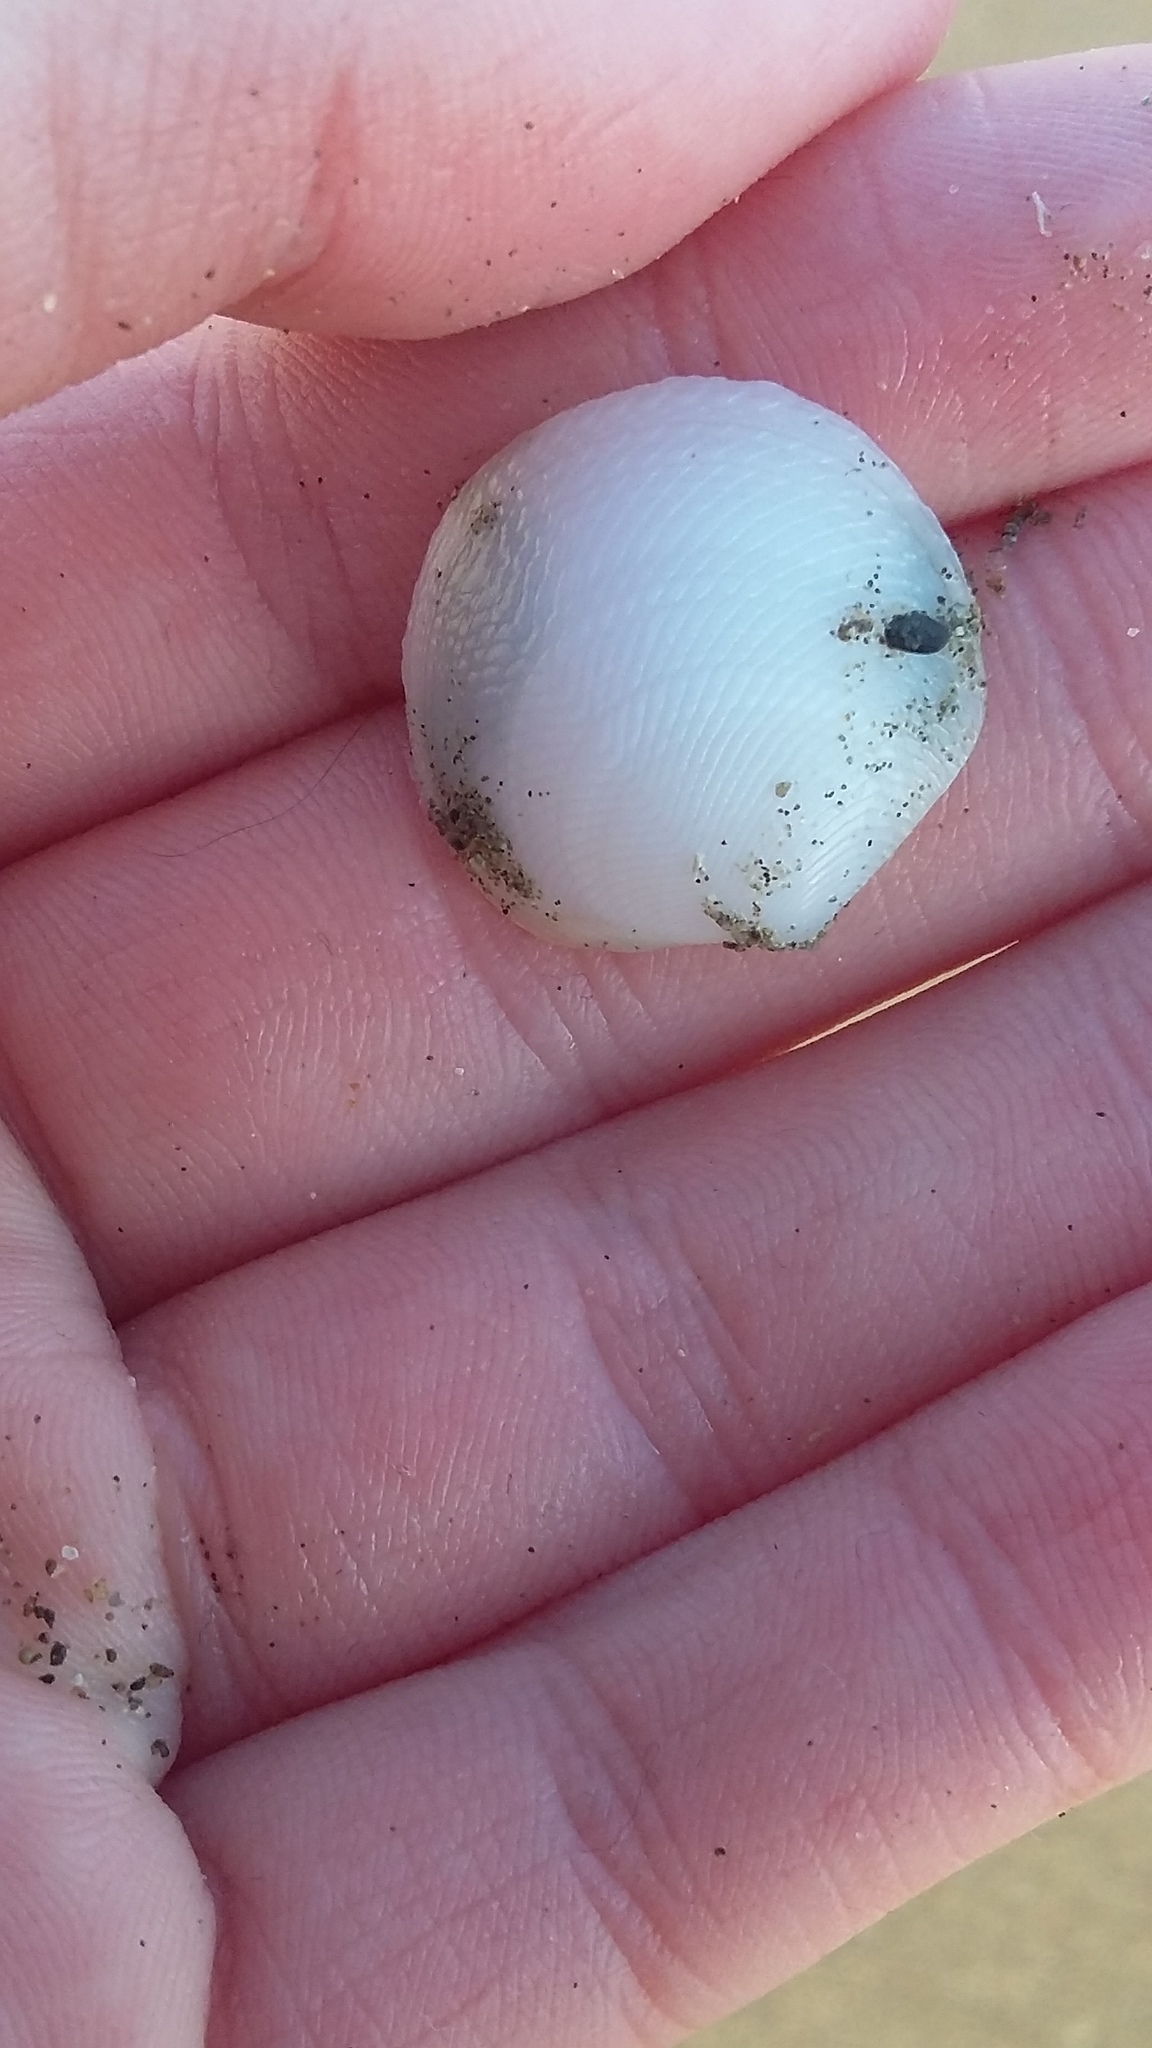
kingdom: Animalia
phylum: Mollusca
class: Bivalvia
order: Lucinida
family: Lucinidae
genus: Divalucina
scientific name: Divalucina cumingi
